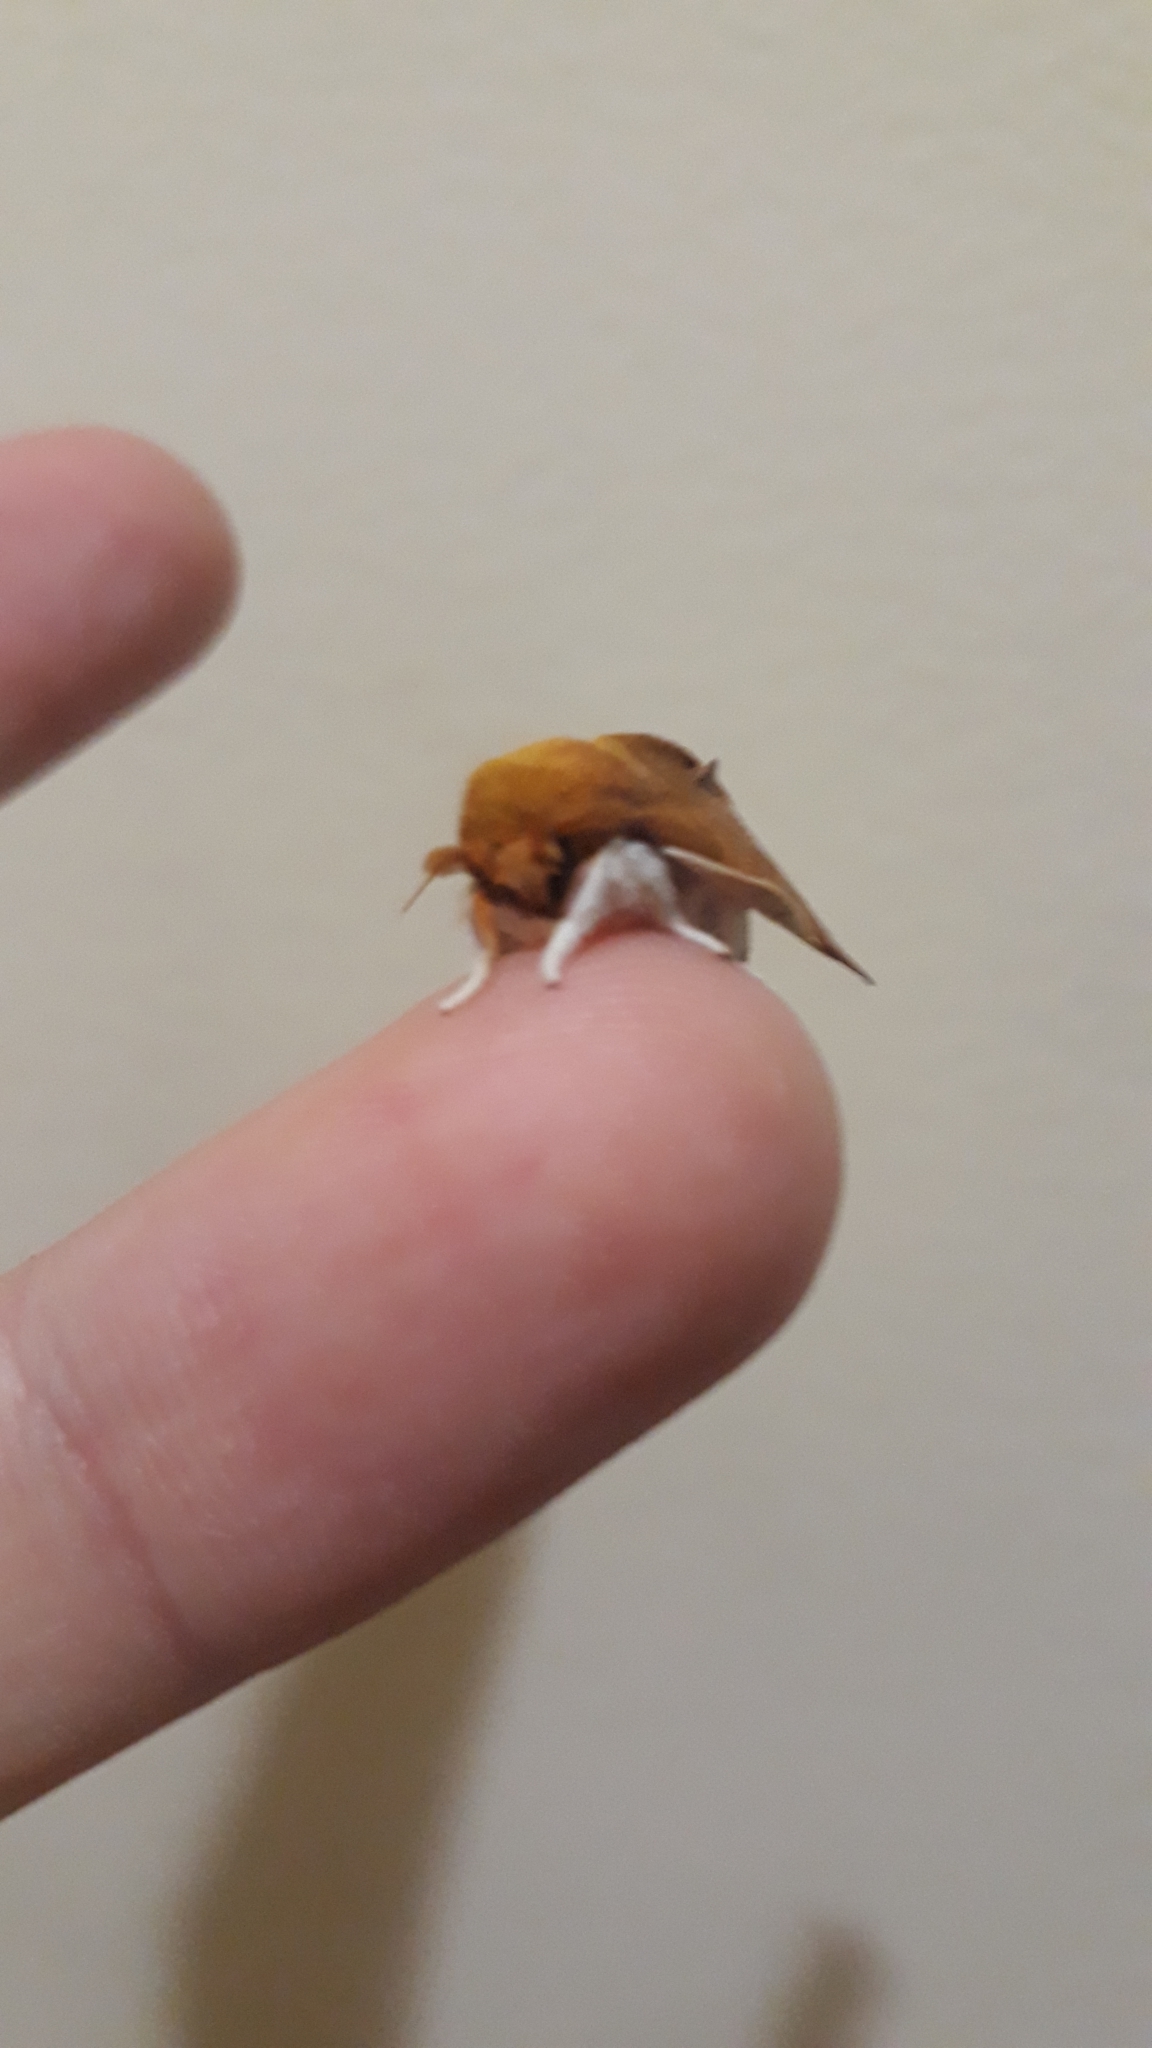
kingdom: Animalia
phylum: Arthropoda
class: Insecta
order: Lepidoptera
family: Saturniidae
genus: Cicia
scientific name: Cicia crocata
